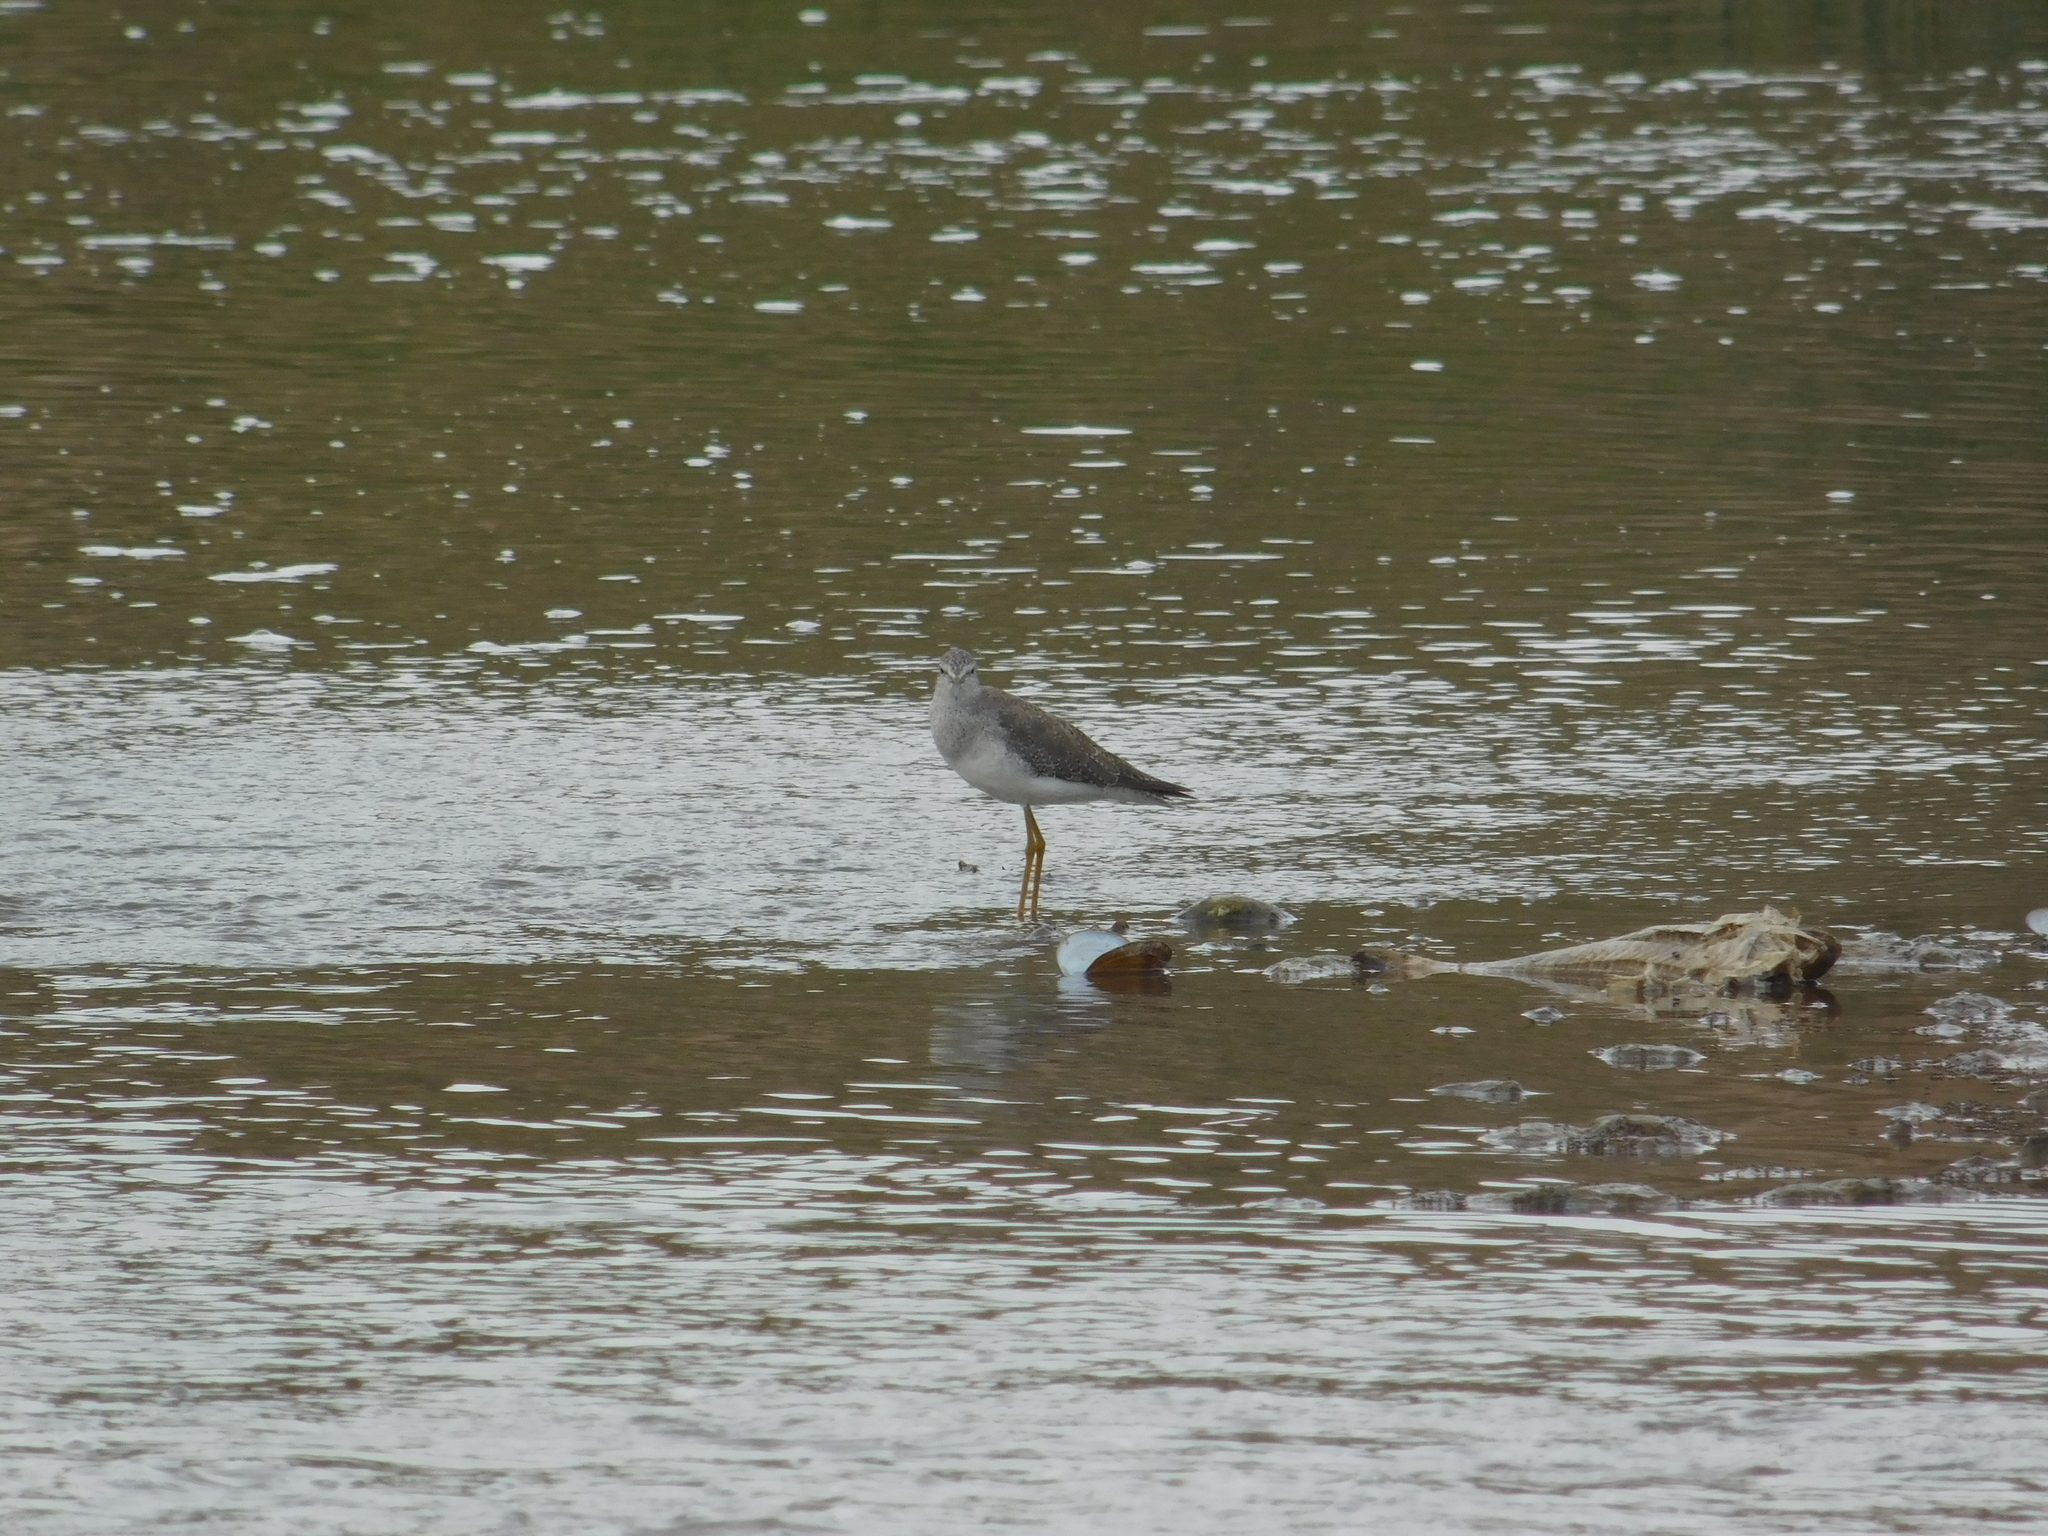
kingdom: Animalia
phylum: Chordata
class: Aves
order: Charadriiformes
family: Scolopacidae
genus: Tringa
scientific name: Tringa flavipes
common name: Lesser yellowlegs
